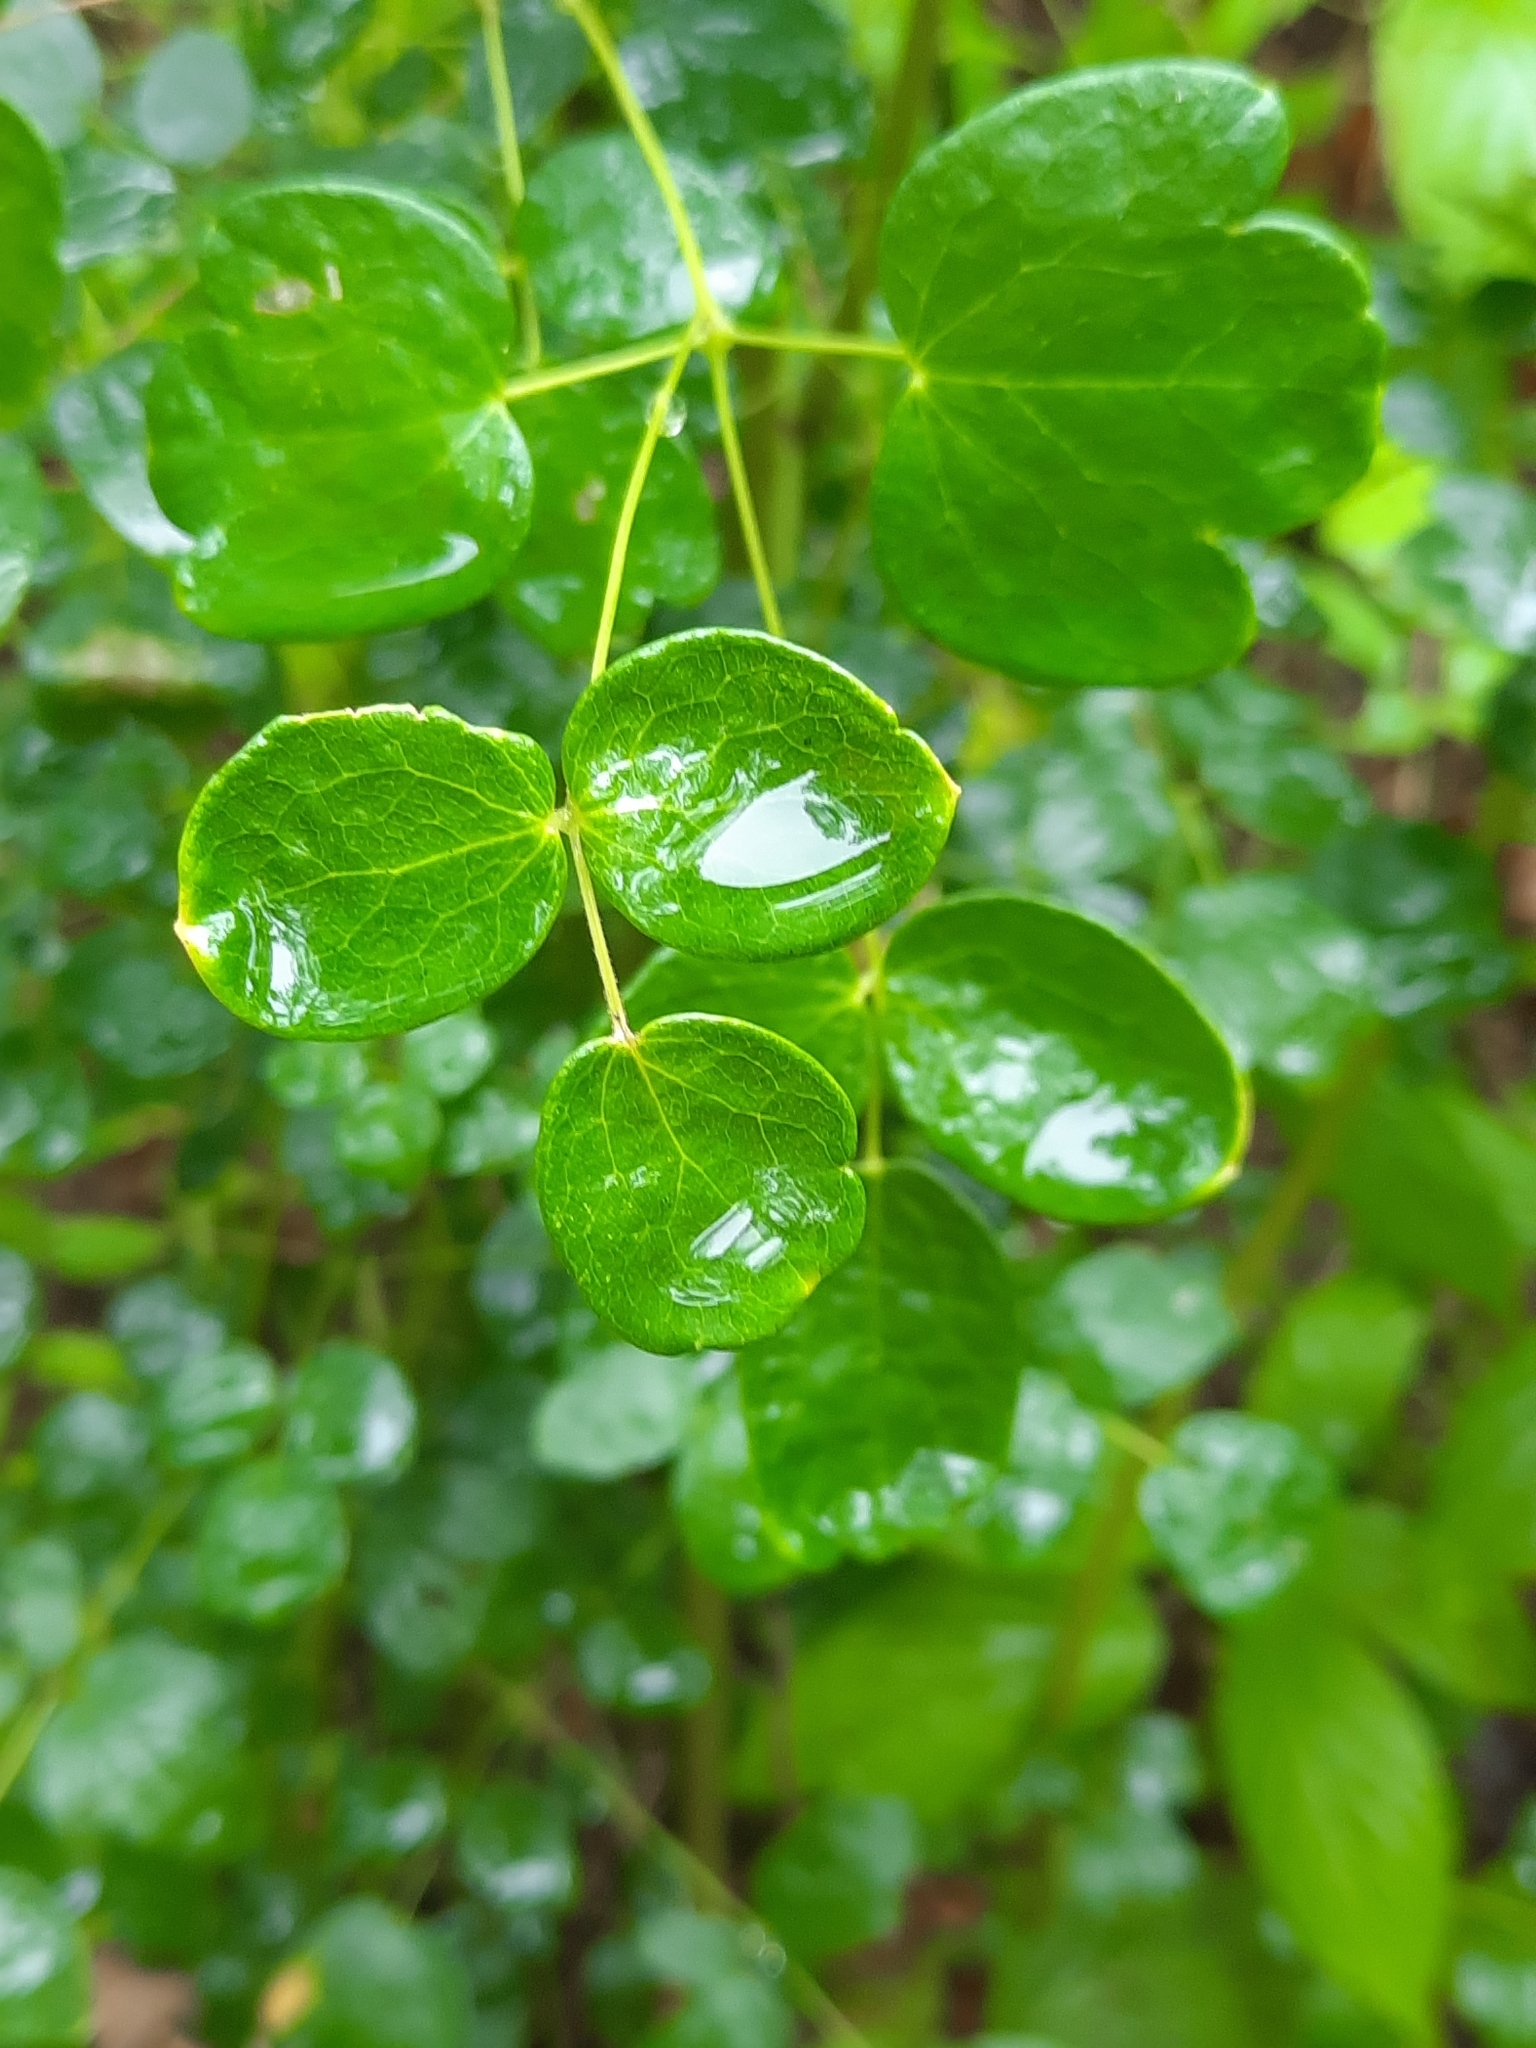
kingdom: Plantae
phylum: Tracheophyta
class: Magnoliopsida
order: Ranunculales
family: Ranunculaceae
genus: Thalictrum
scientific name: Thalictrum pubescens
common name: King-of-the-meadow
